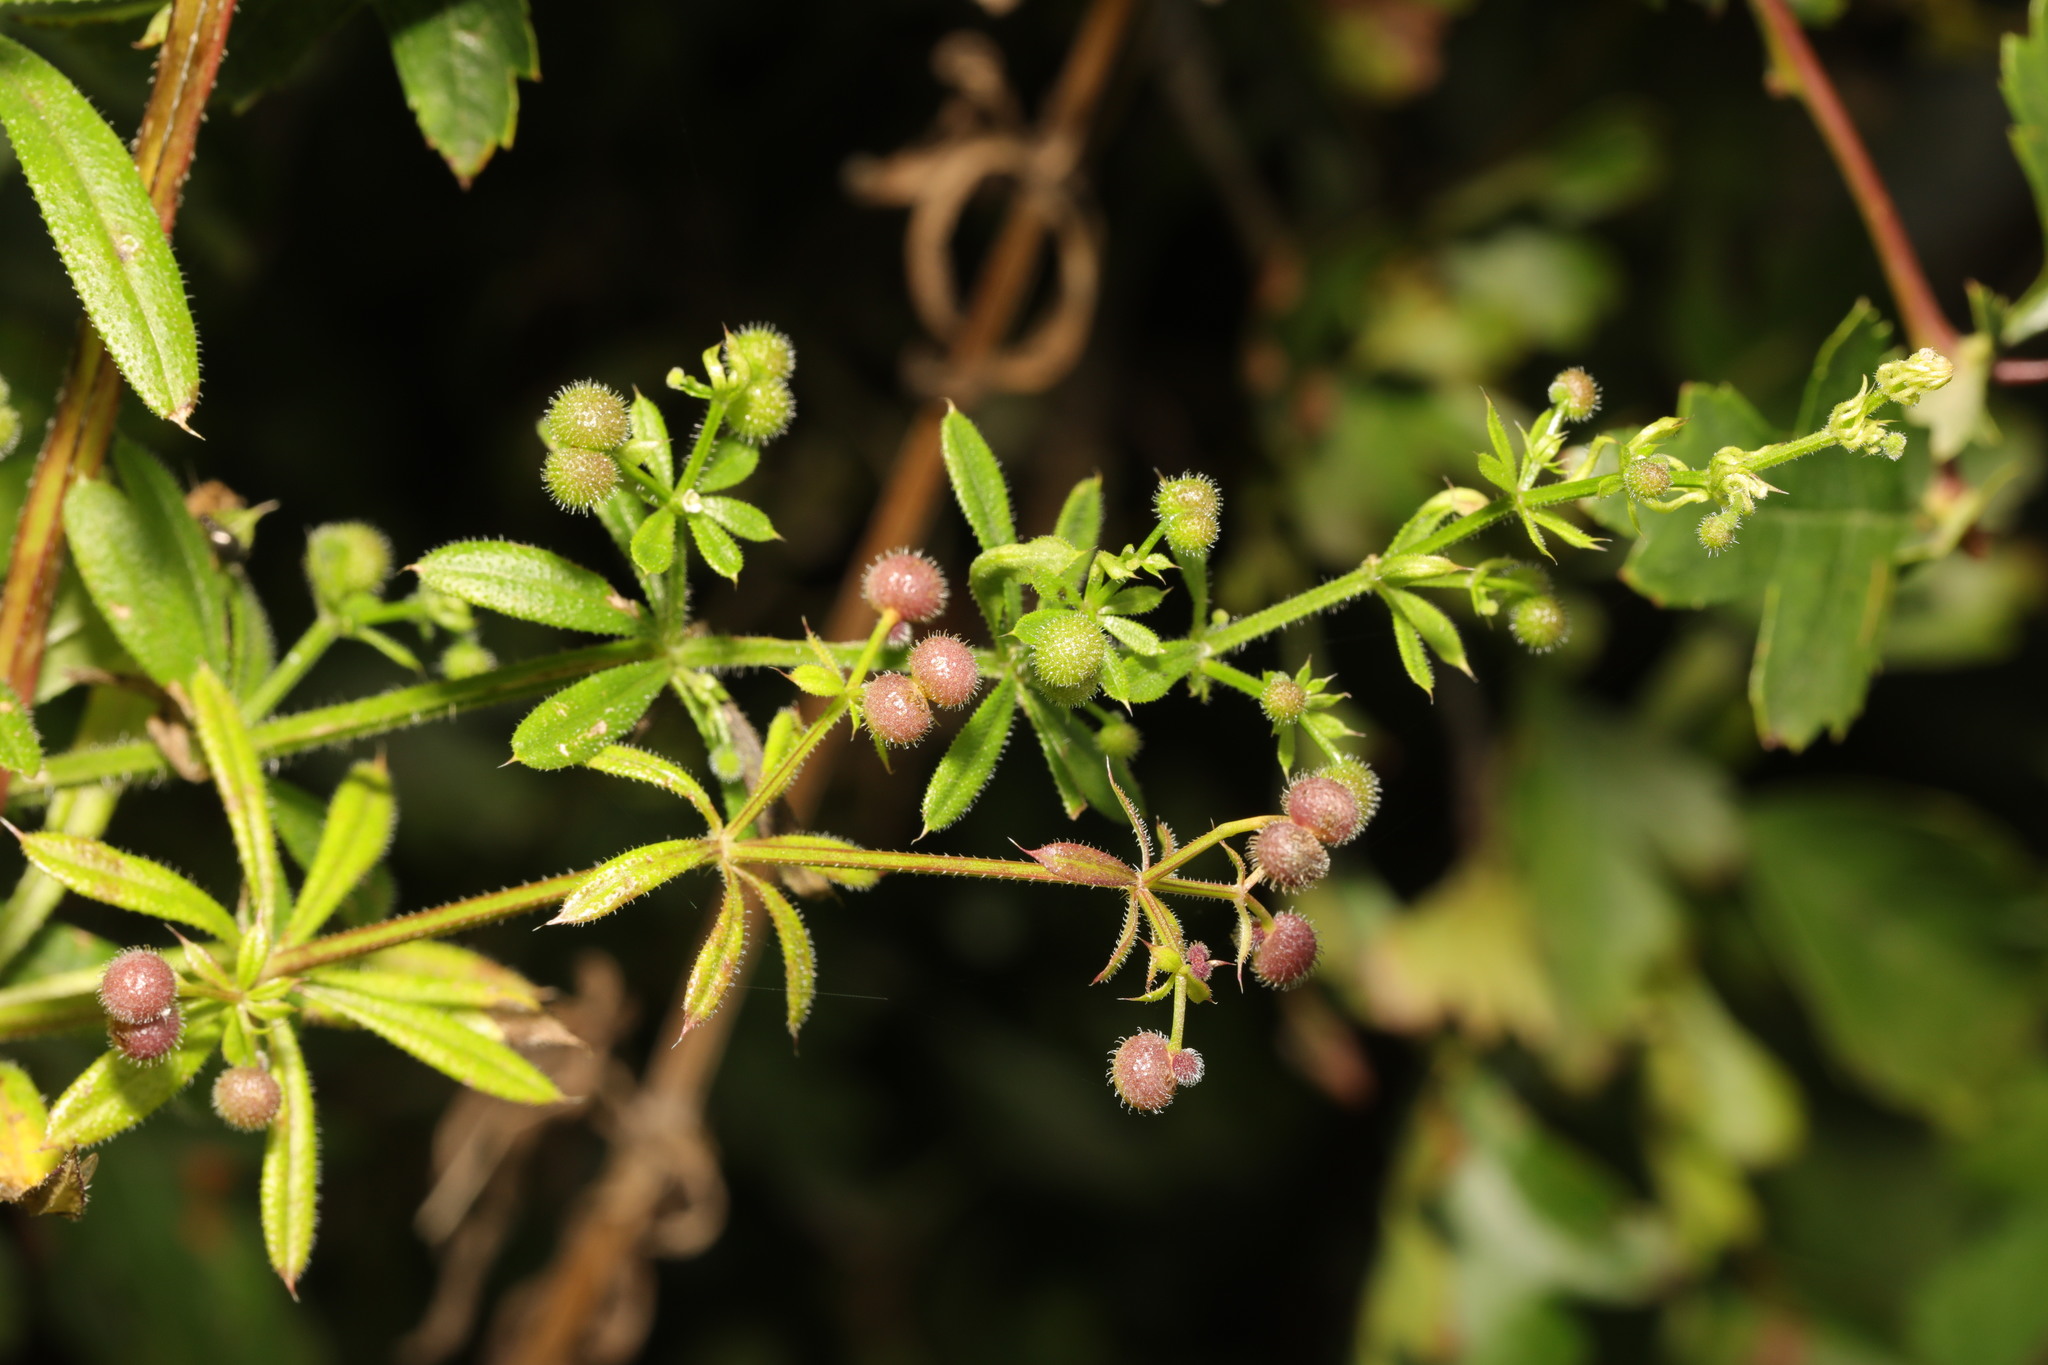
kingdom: Plantae
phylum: Tracheophyta
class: Magnoliopsida
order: Gentianales
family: Rubiaceae
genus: Galium
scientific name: Galium aparine
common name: Cleavers
